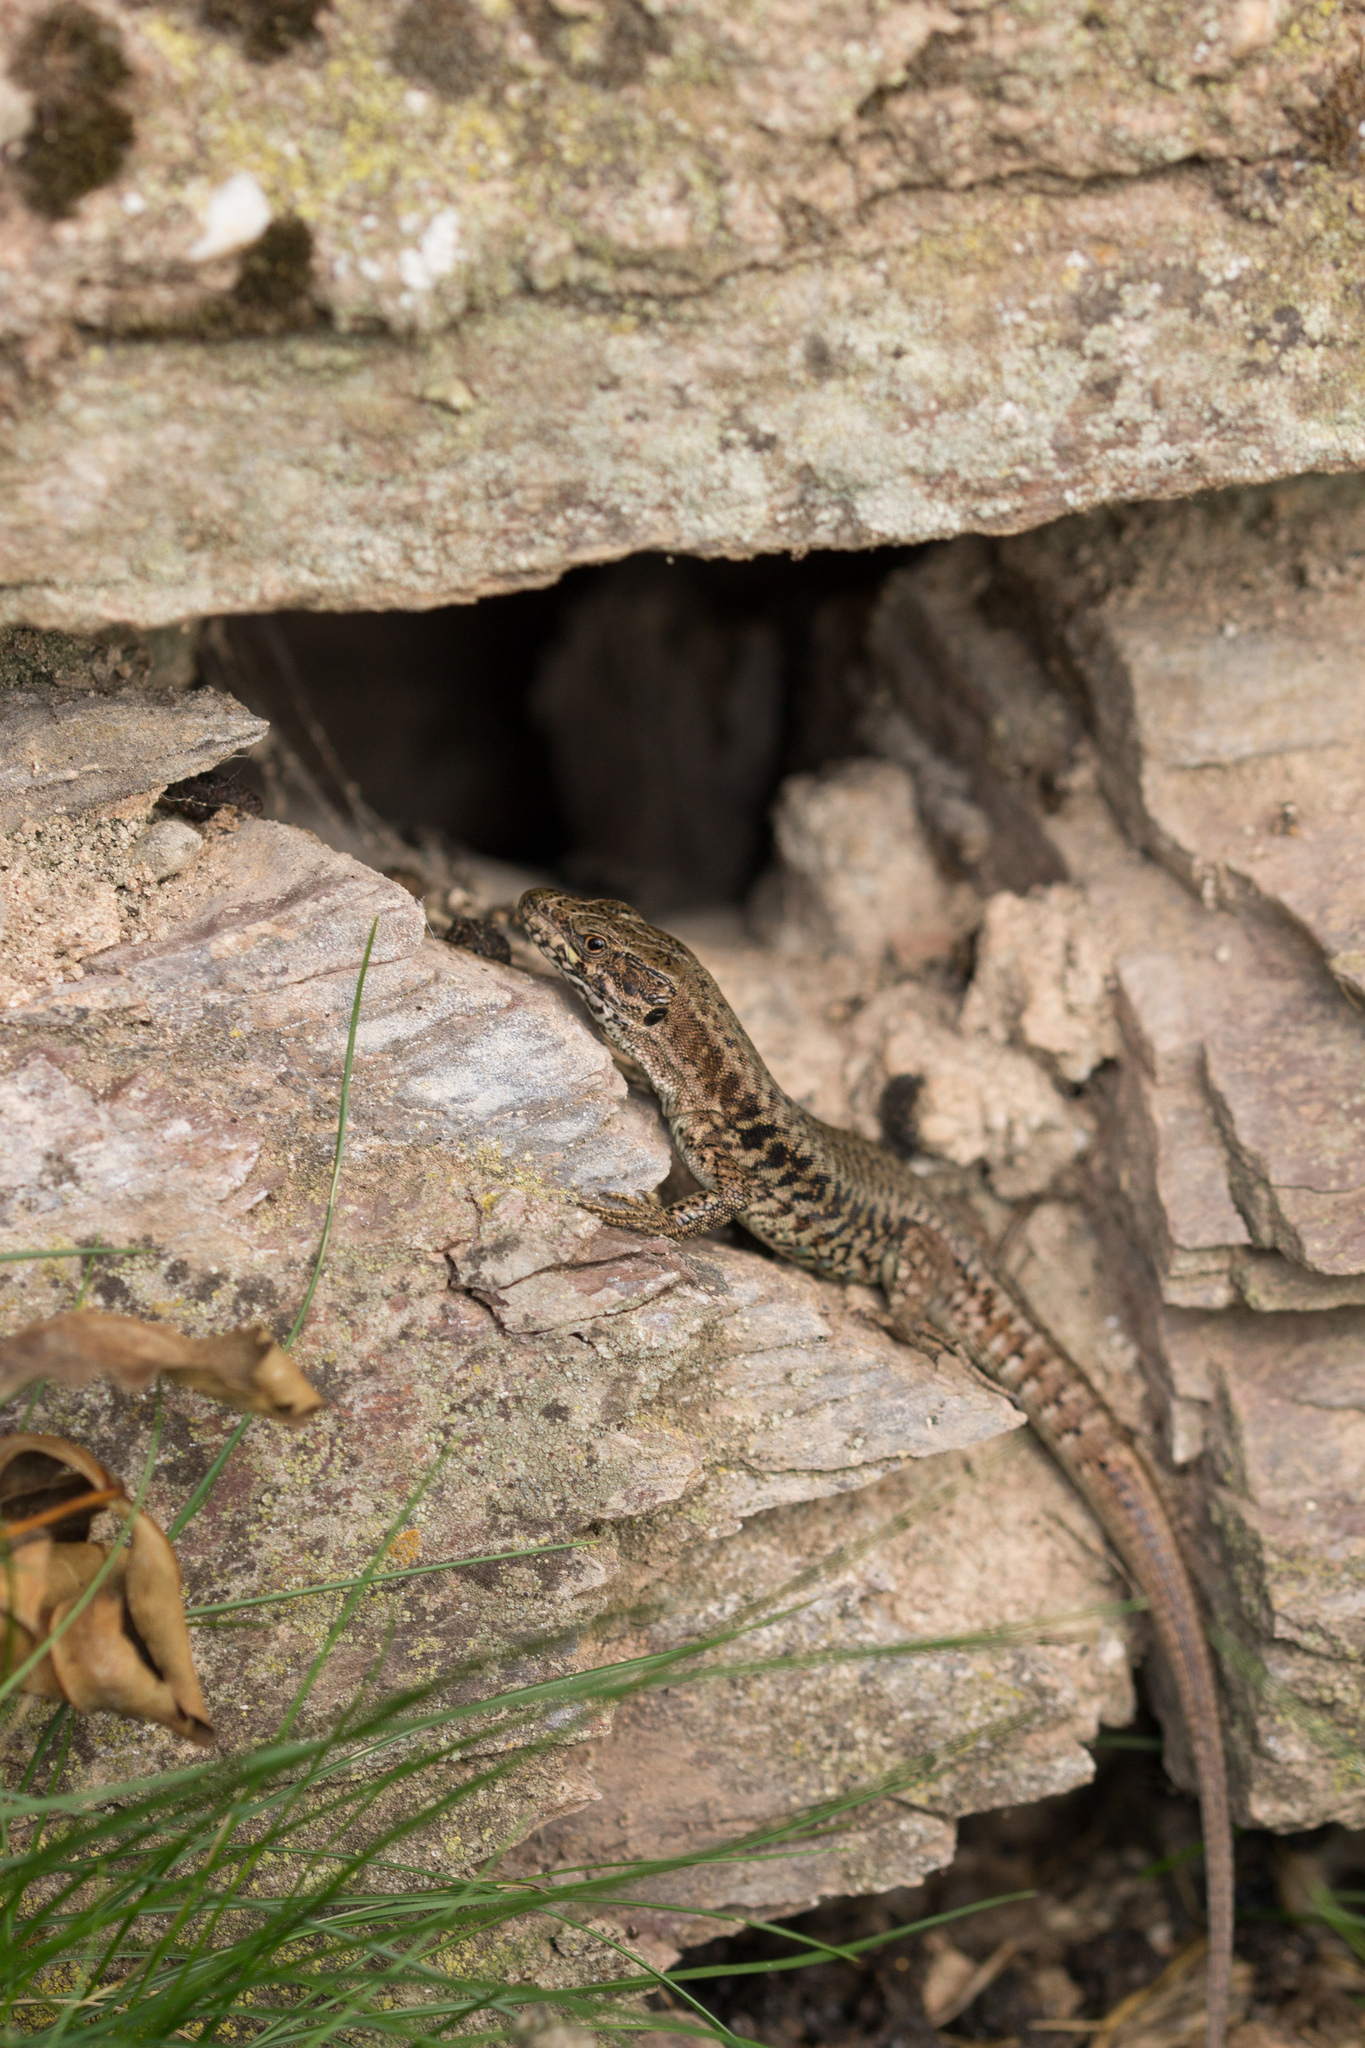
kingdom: Animalia
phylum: Chordata
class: Squamata
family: Lacertidae
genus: Podarcis
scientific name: Podarcis muralis
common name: Common wall lizard
